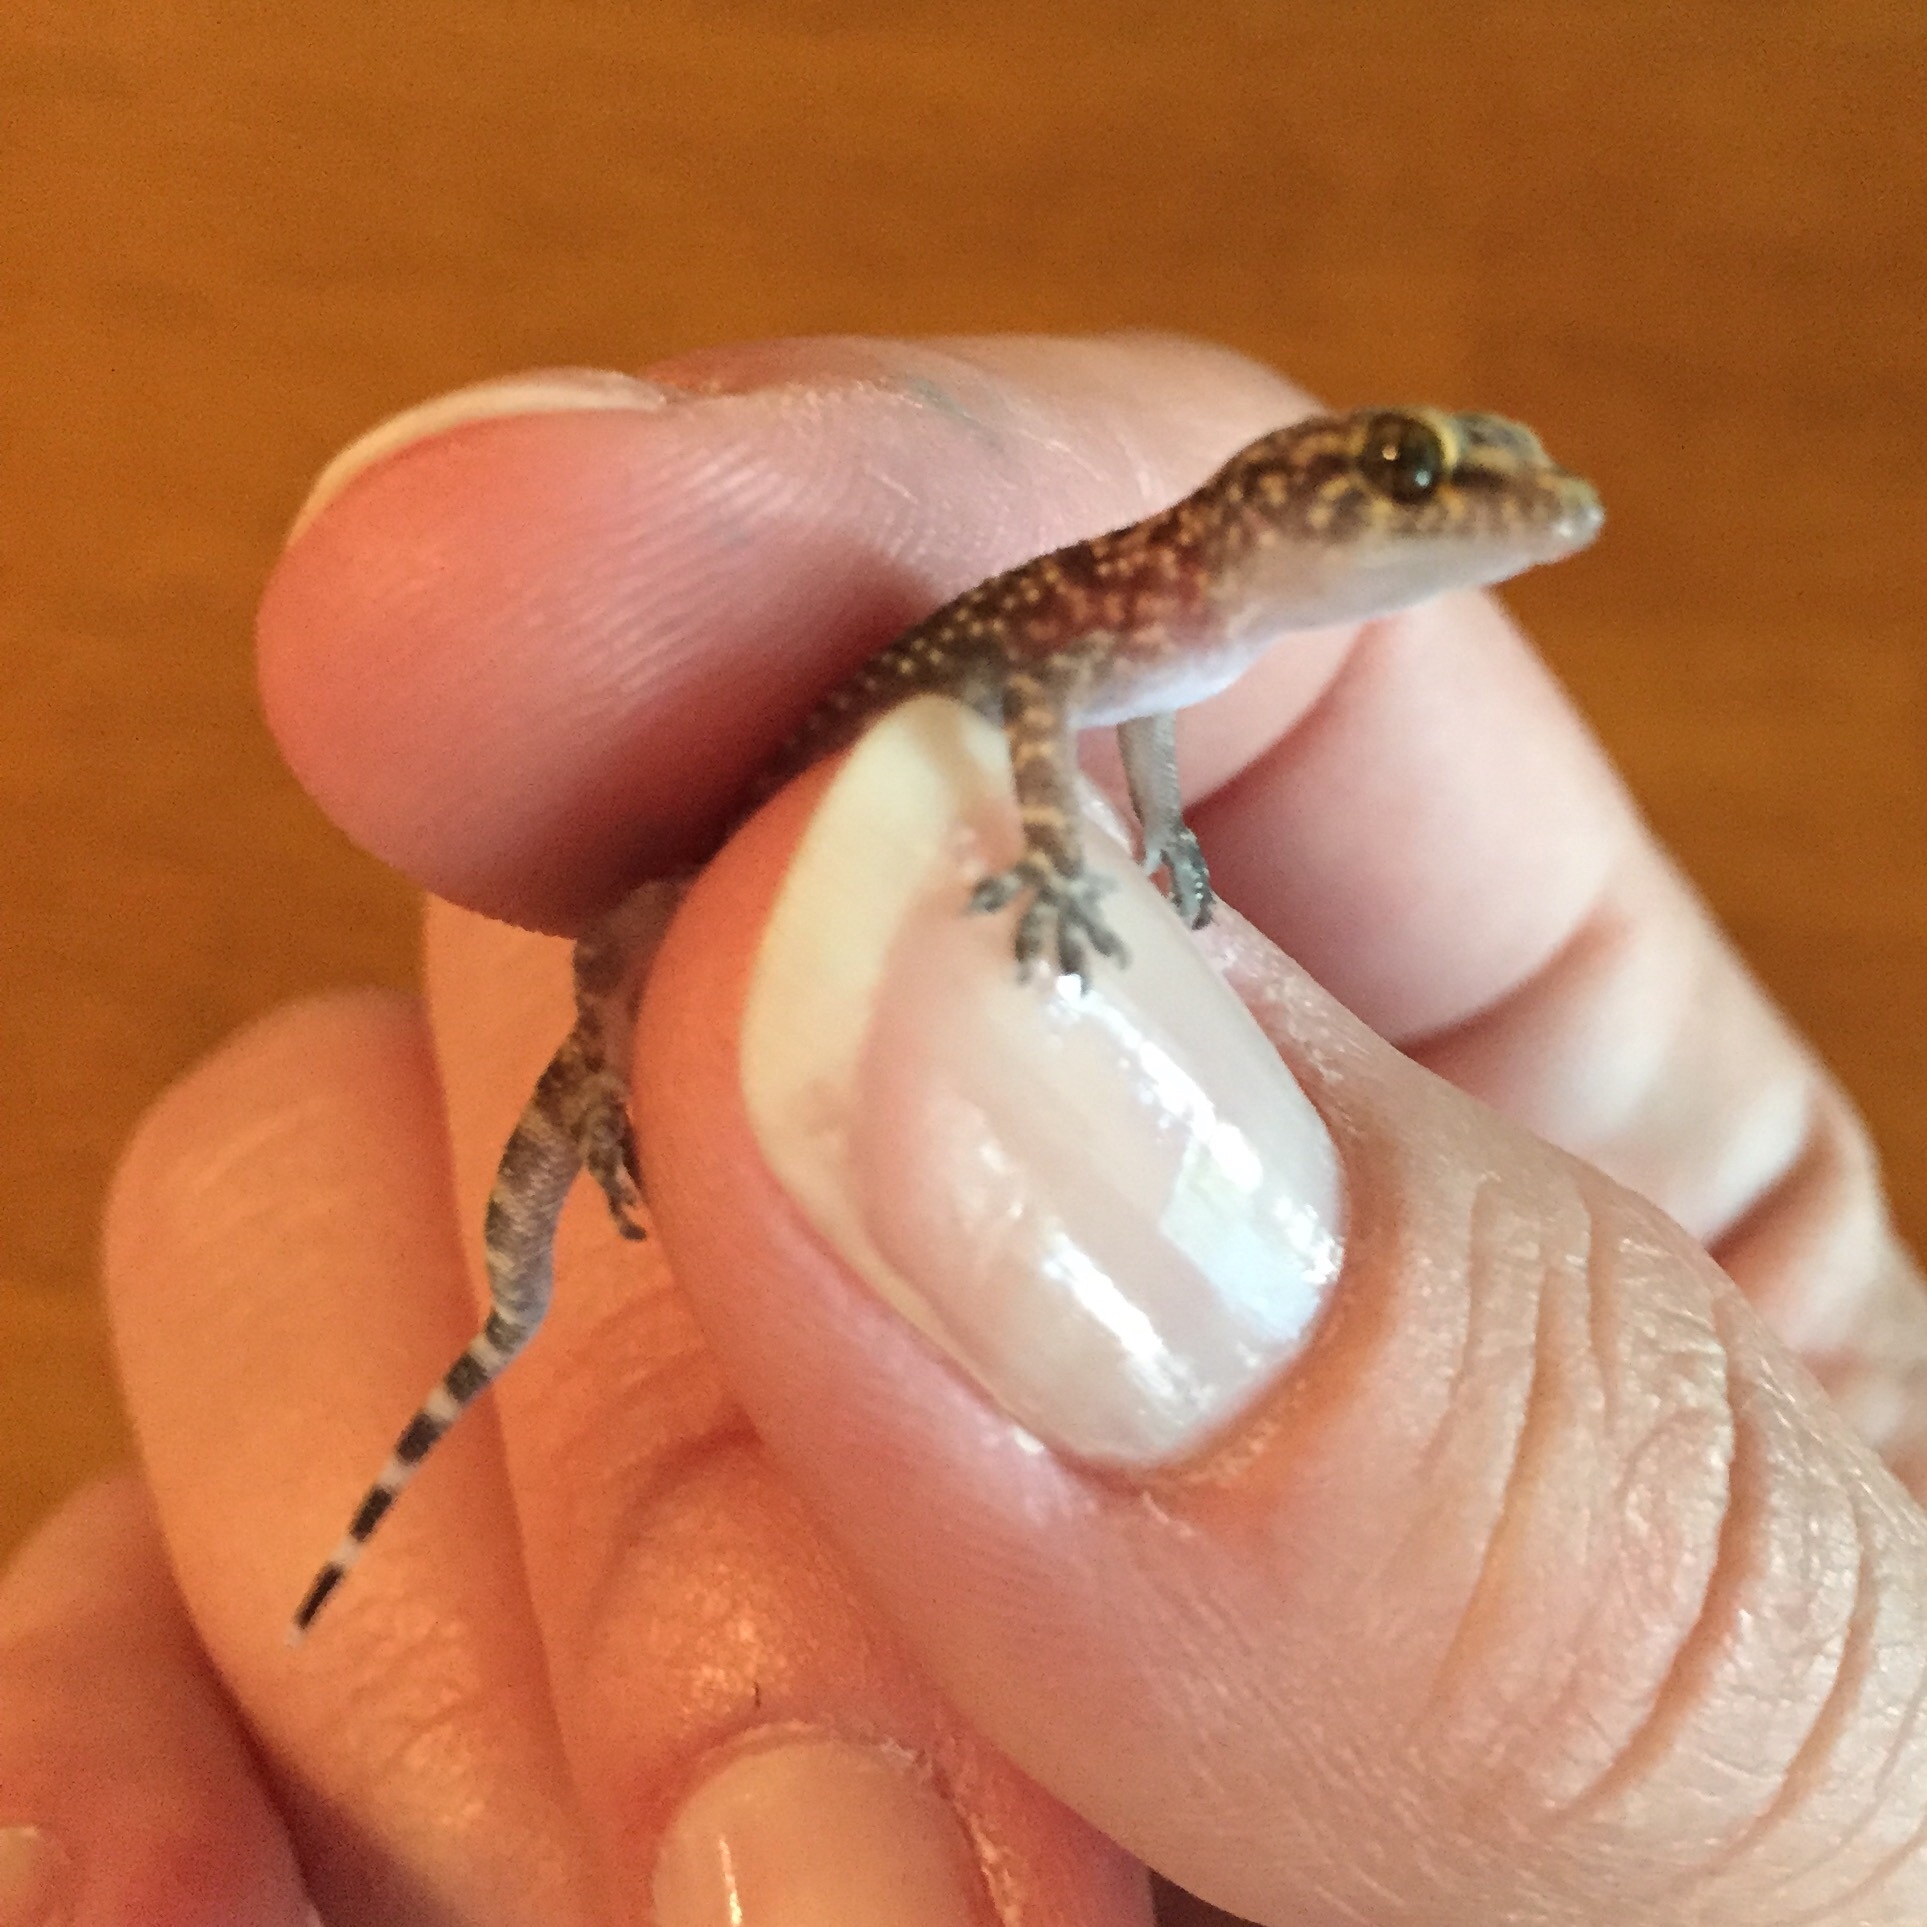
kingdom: Animalia
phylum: Chordata
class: Squamata
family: Gekkonidae
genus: Hemidactylus
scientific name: Hemidactylus turcicus
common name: Turkish gecko
